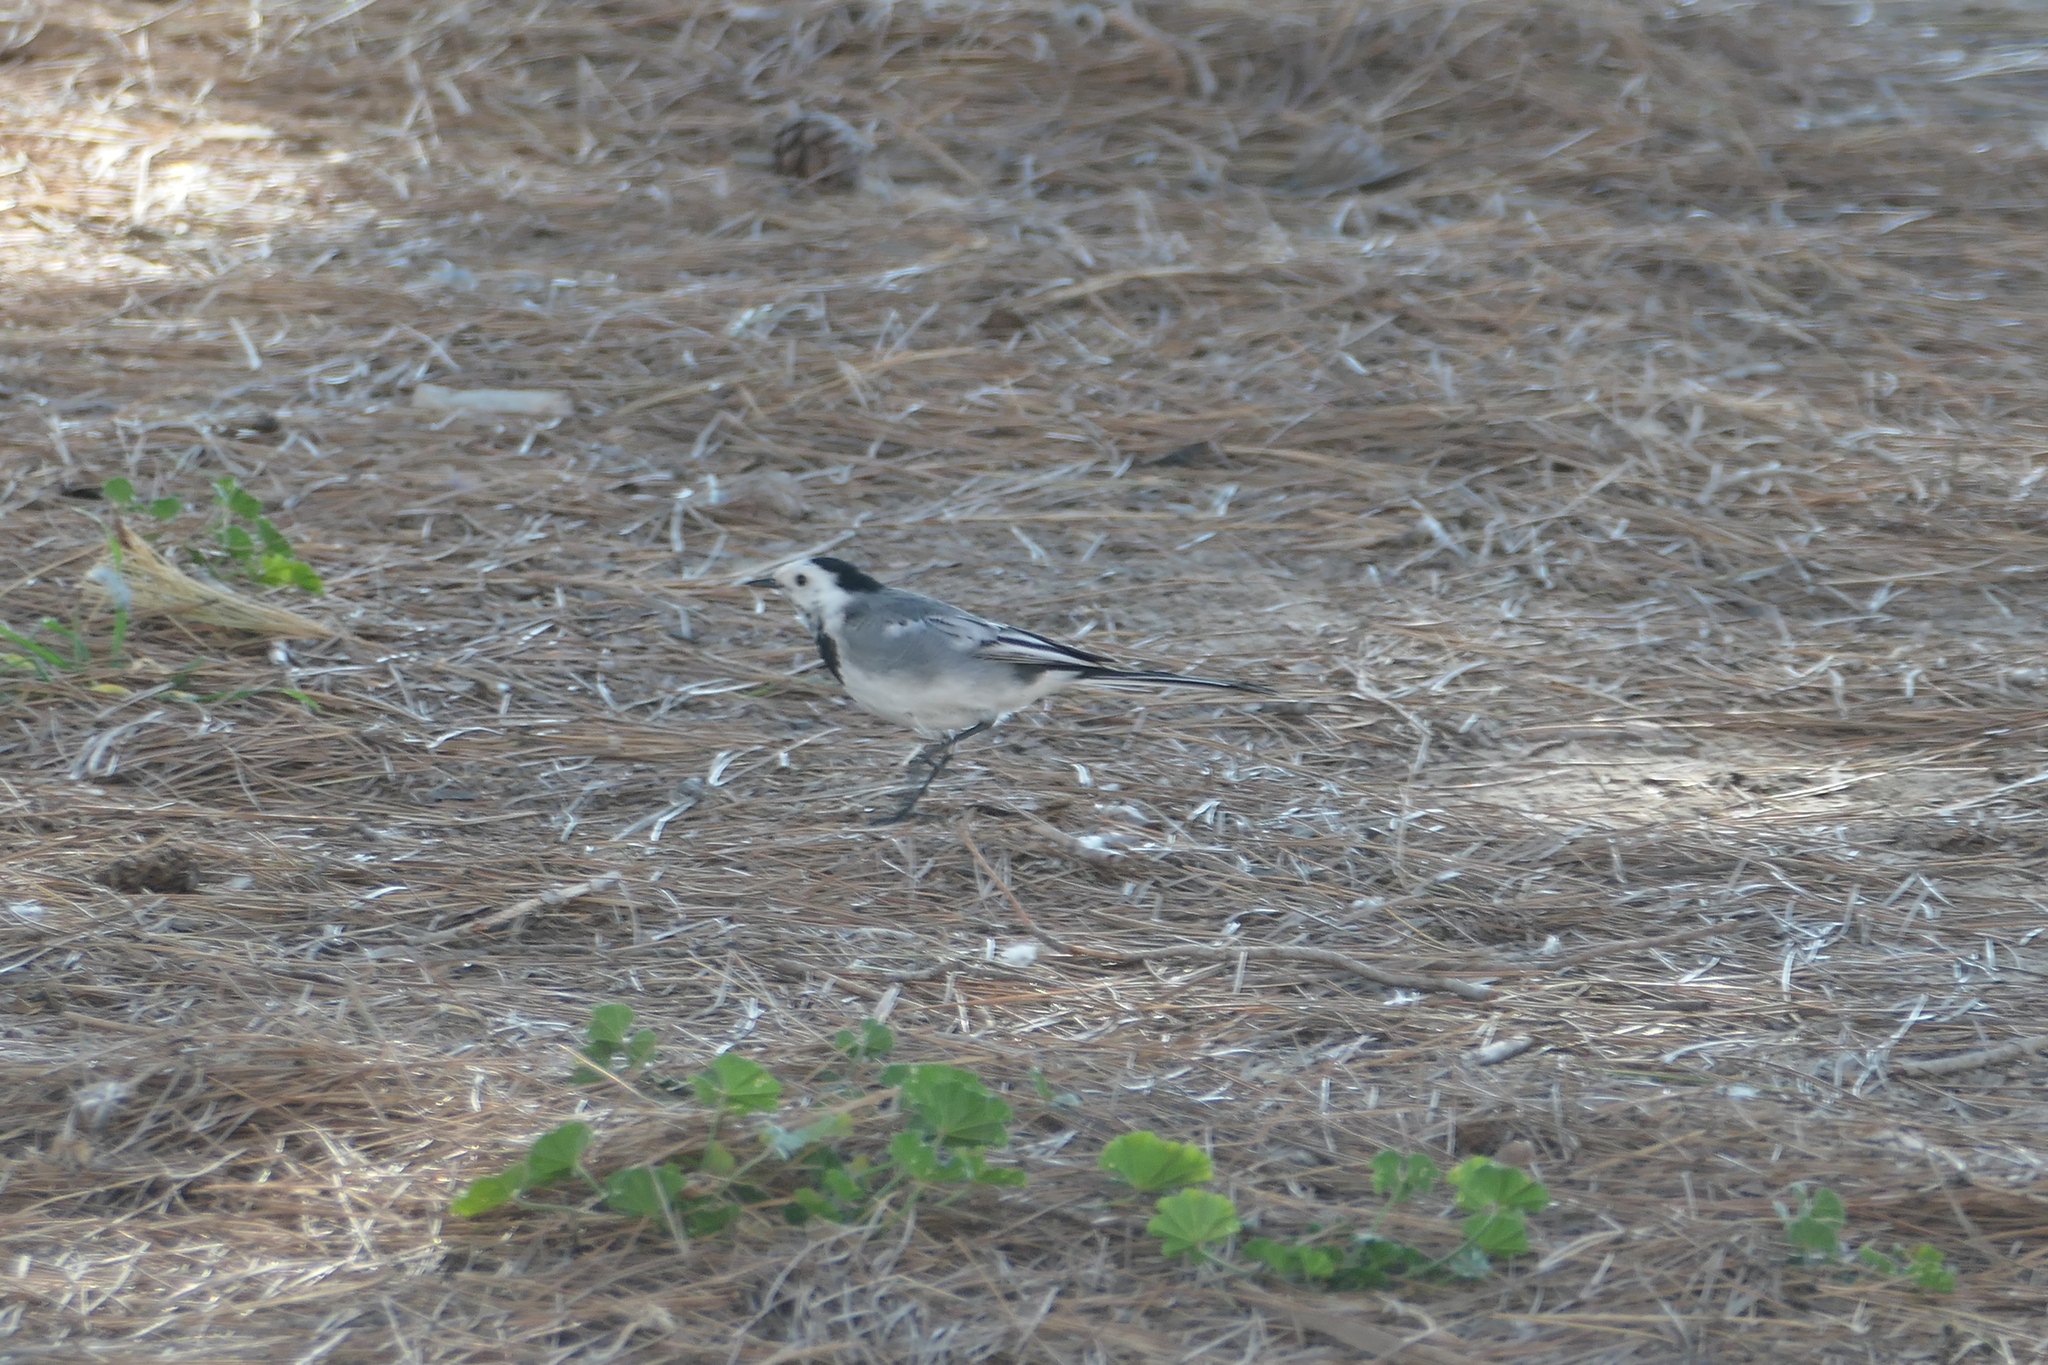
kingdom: Animalia
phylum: Chordata
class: Aves
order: Passeriformes
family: Motacillidae
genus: Motacilla
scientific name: Motacilla alba
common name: White wagtail
